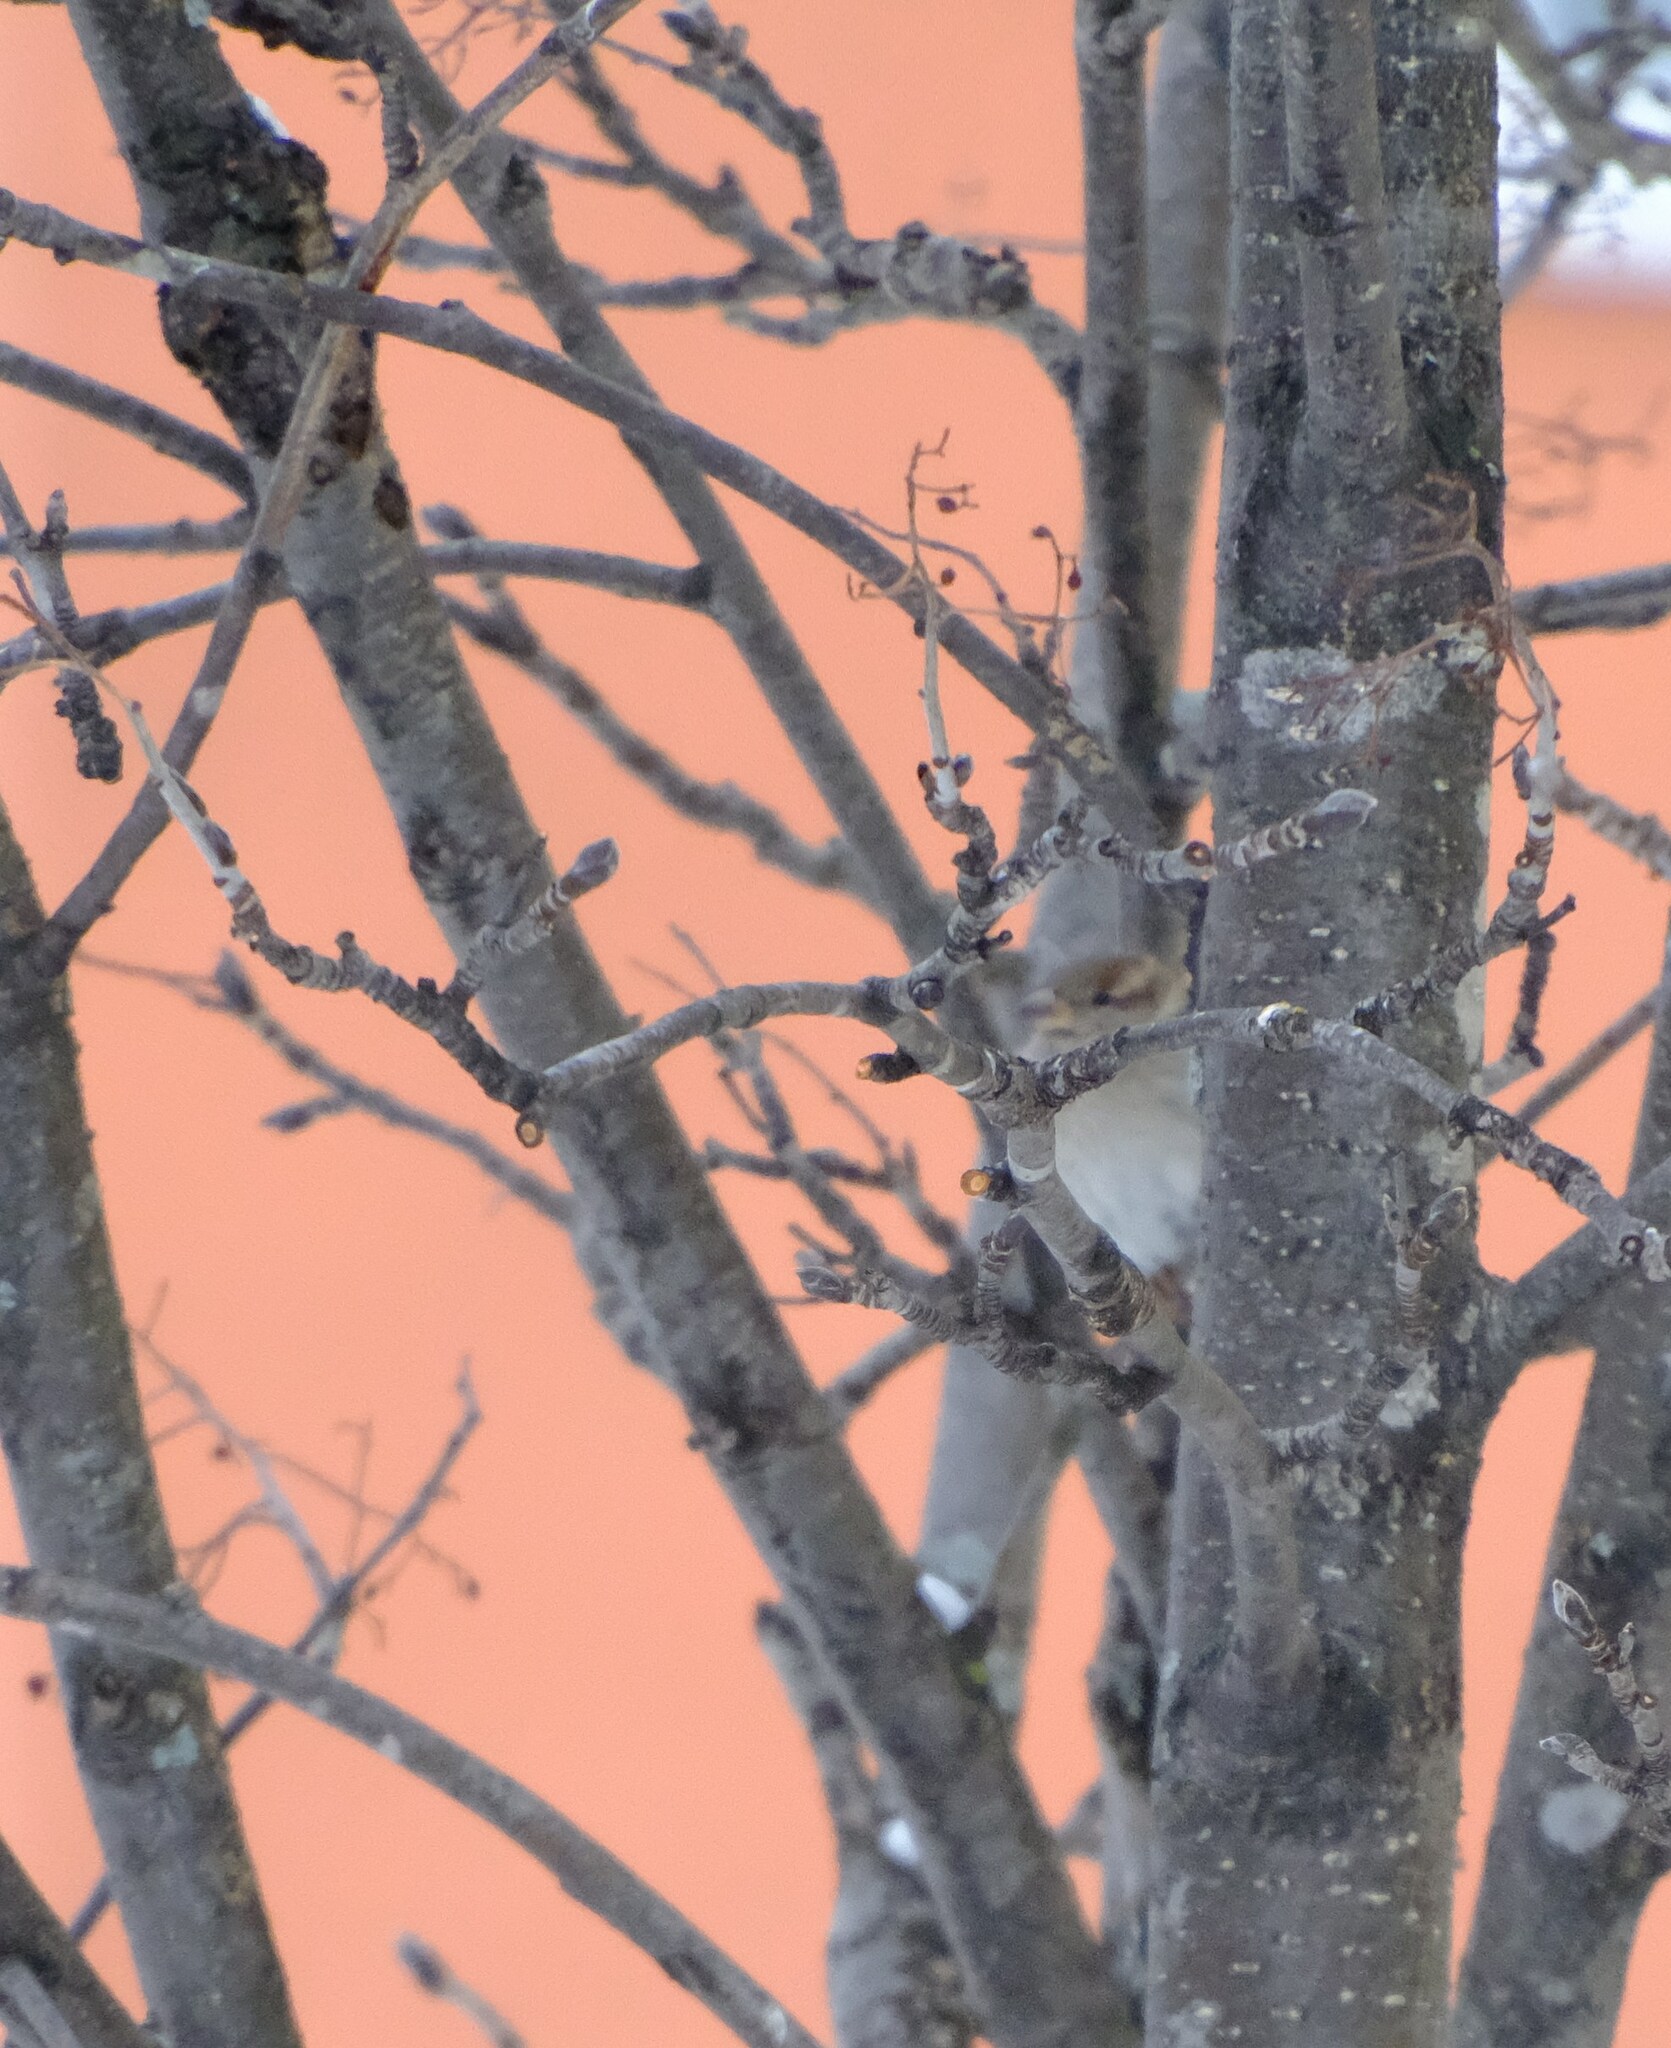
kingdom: Animalia
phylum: Chordata
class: Aves
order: Passeriformes
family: Passeridae
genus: Passer
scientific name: Passer domesticus
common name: House sparrow
